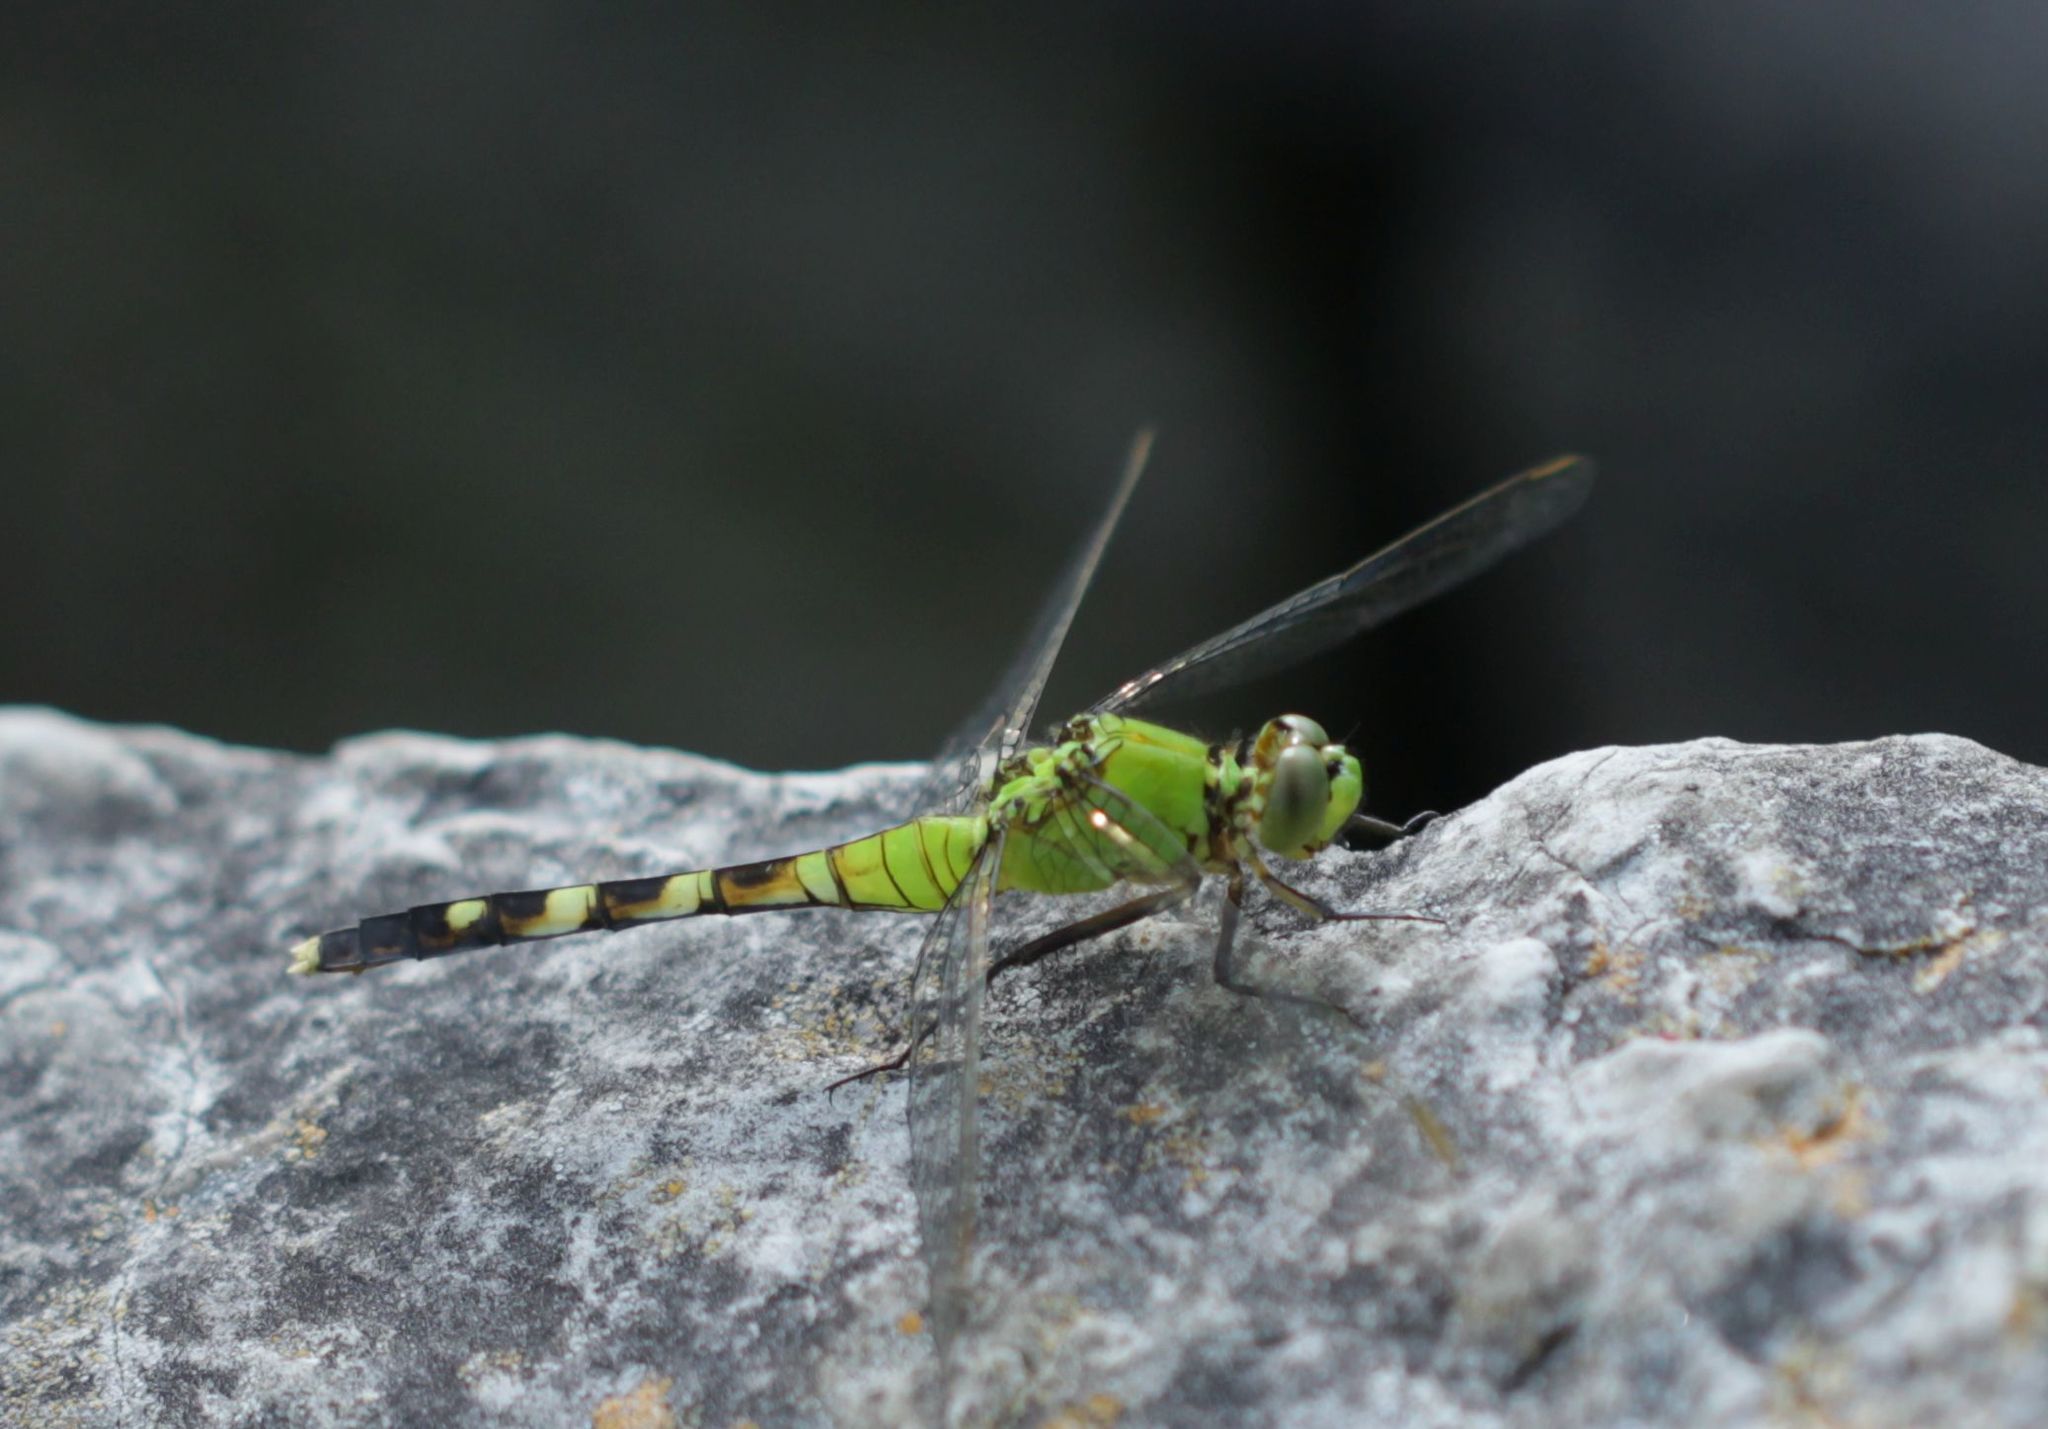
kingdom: Animalia
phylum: Arthropoda
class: Insecta
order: Odonata
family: Libellulidae
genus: Erythemis
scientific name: Erythemis simplicicollis
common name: Eastern pondhawk
